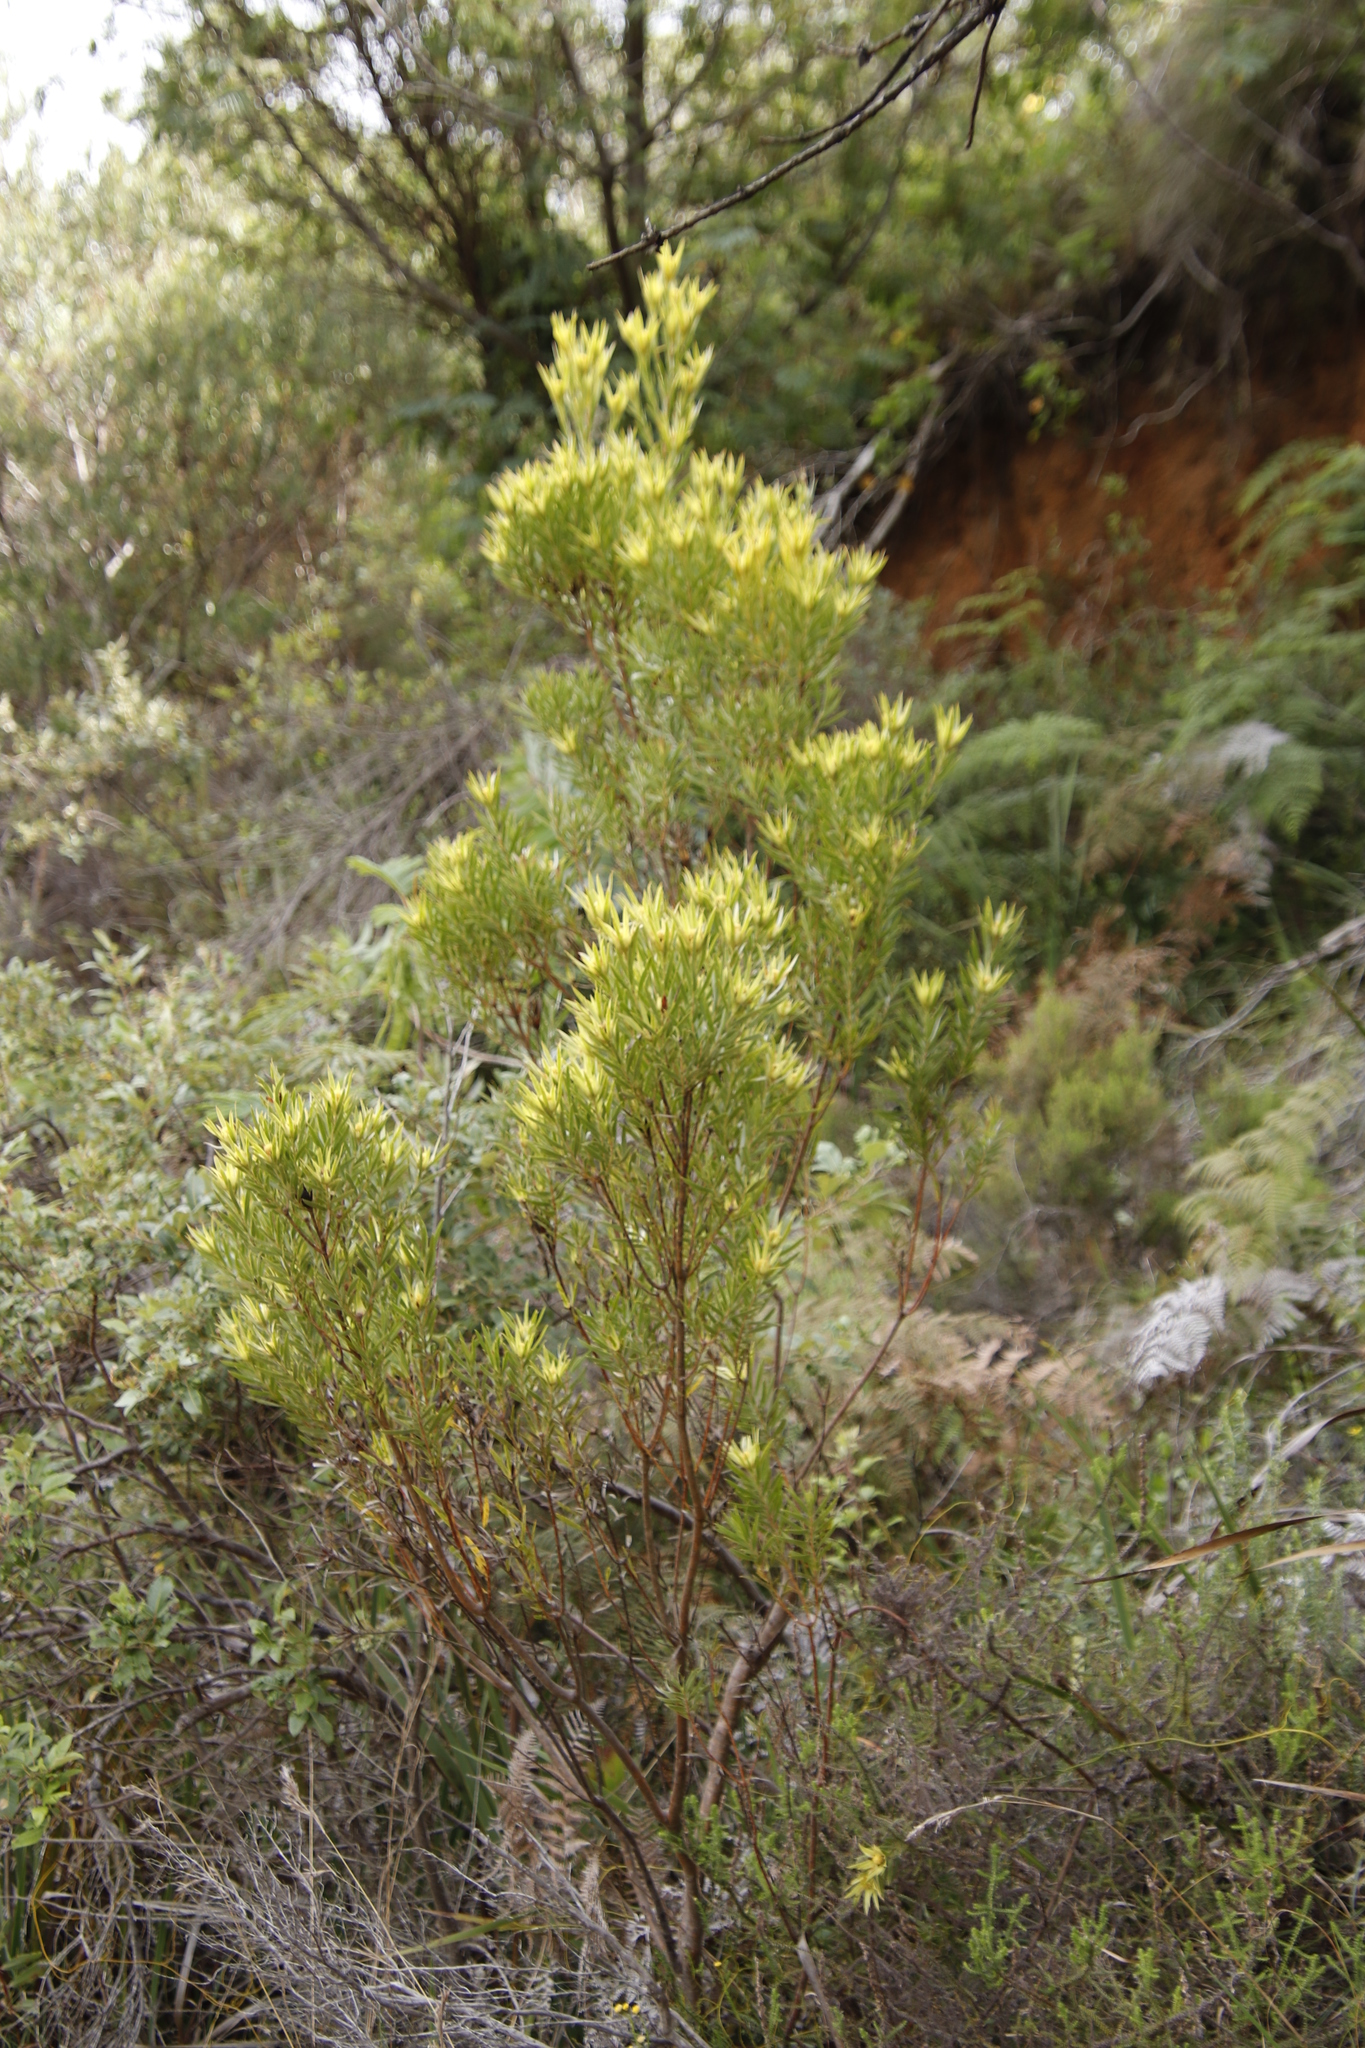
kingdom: Plantae
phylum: Tracheophyta
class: Magnoliopsida
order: Proteales
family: Proteaceae
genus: Leucadendron
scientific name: Leucadendron xanthoconus
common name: Sickle-leaf conebush
